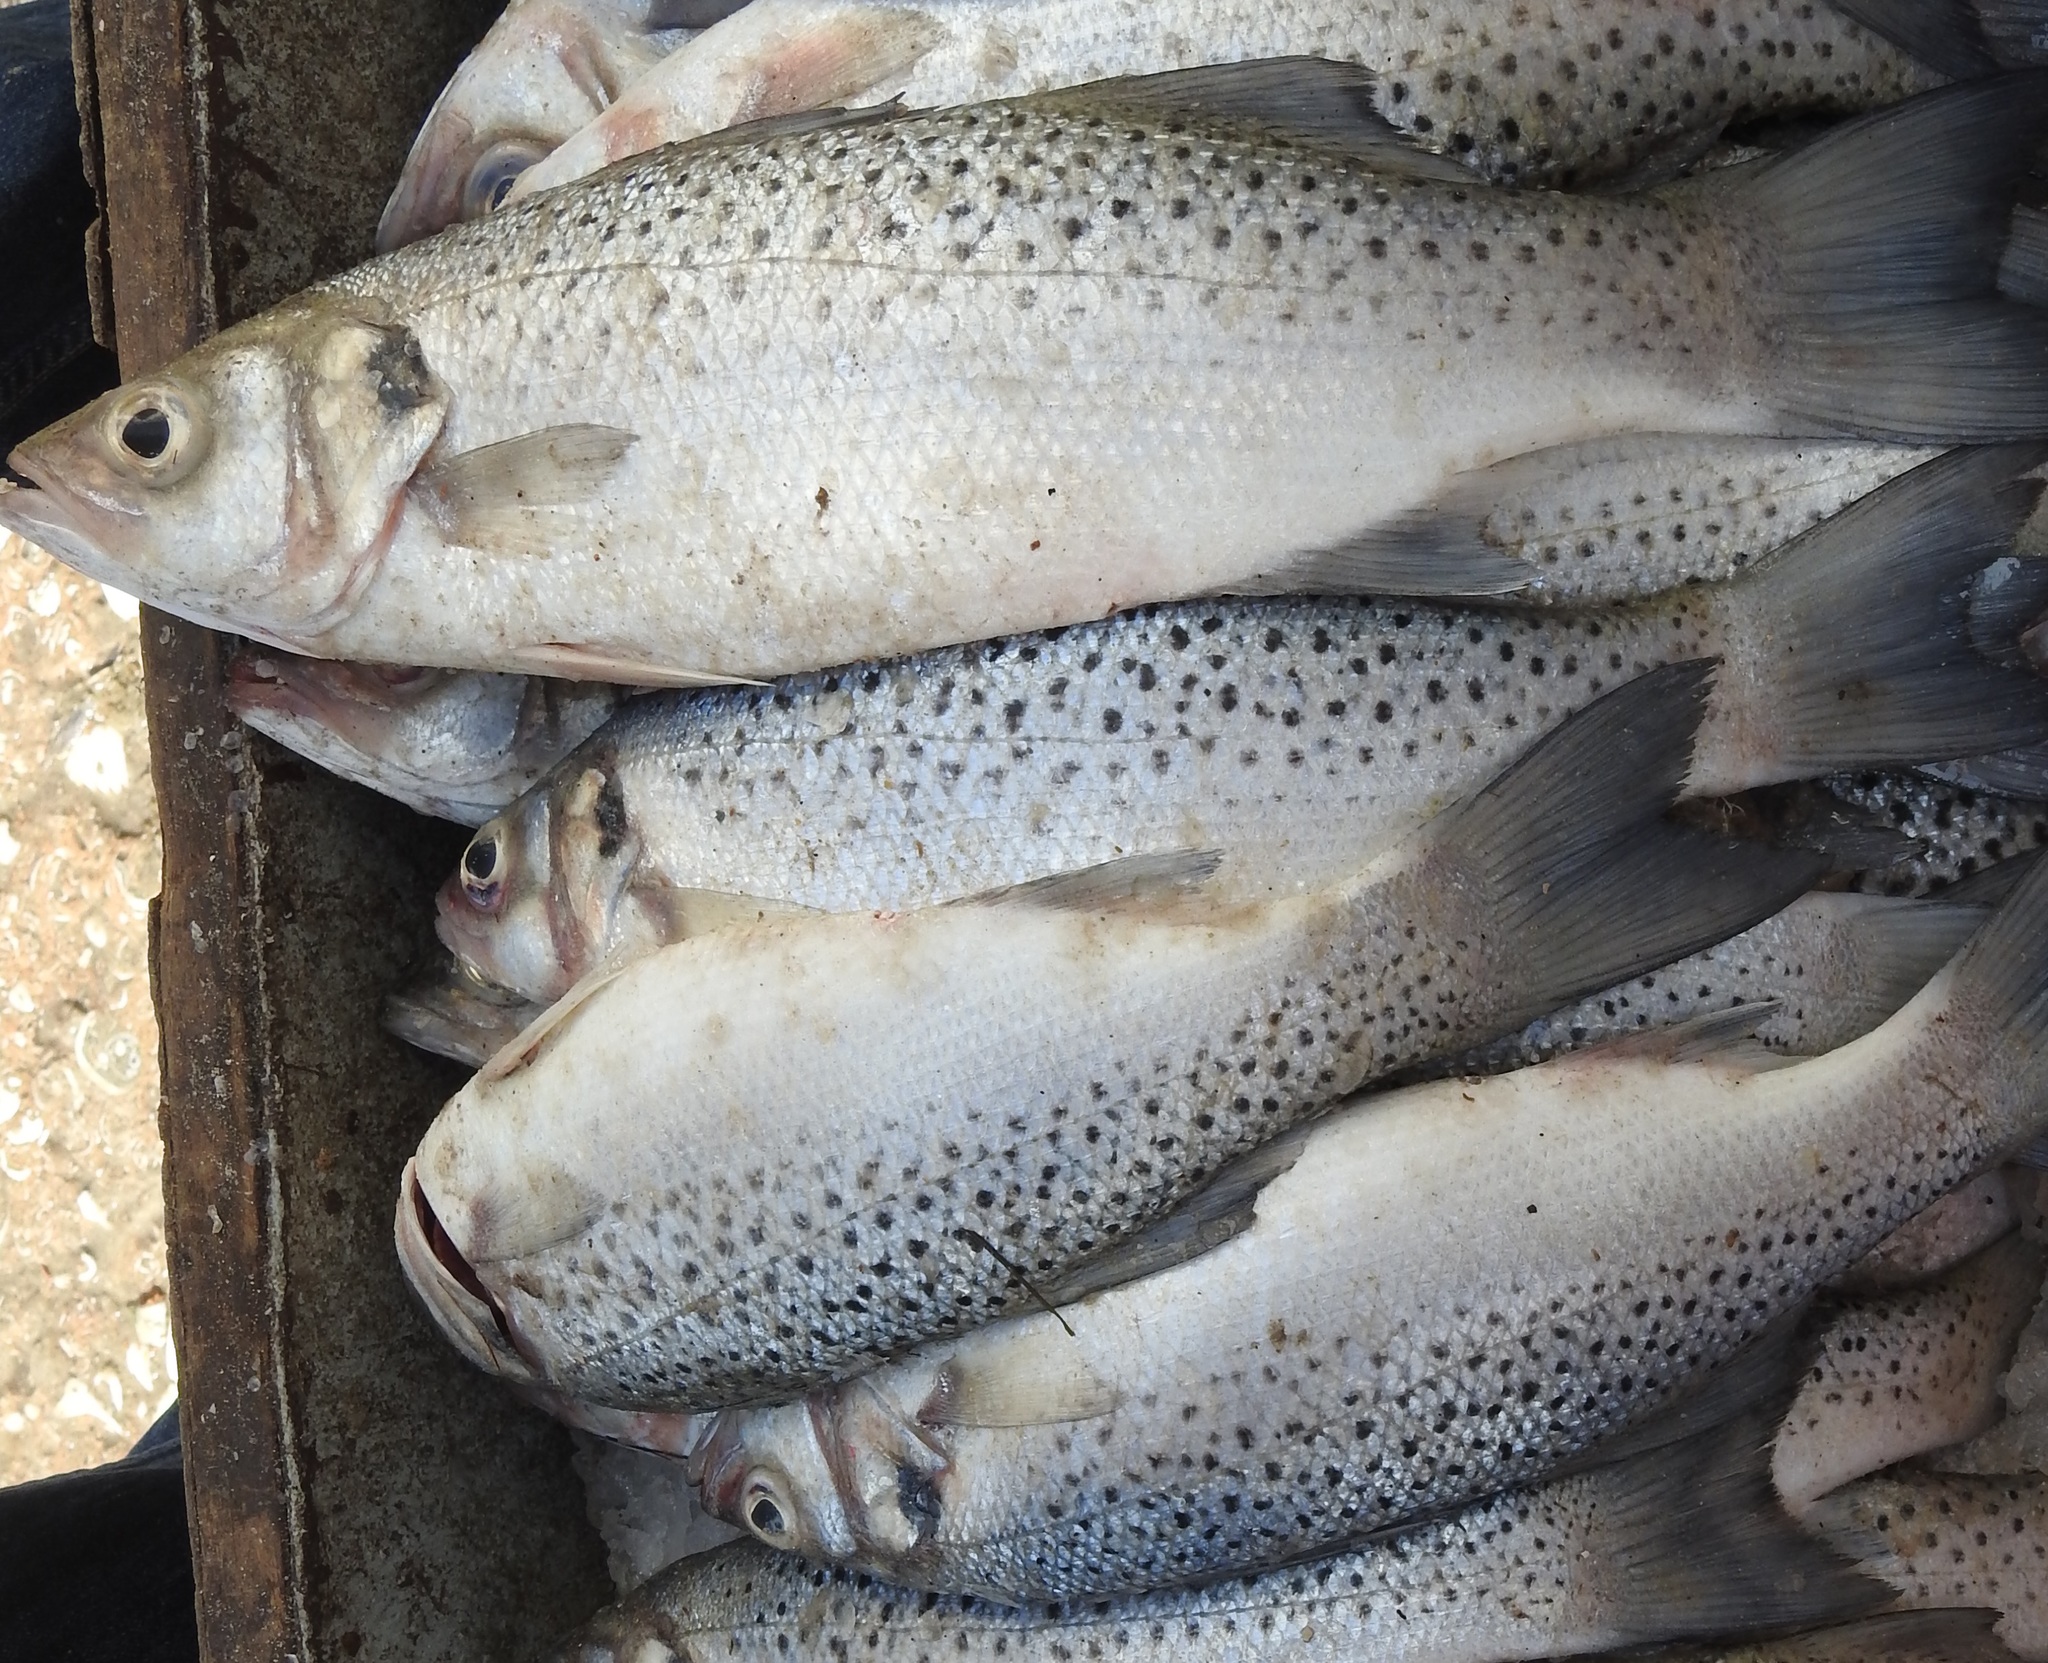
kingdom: Animalia
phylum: Chordata
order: Perciformes
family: Moronidae
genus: Dicentrarchus
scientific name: Dicentrarchus punctatus
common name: Black-spotted bass
